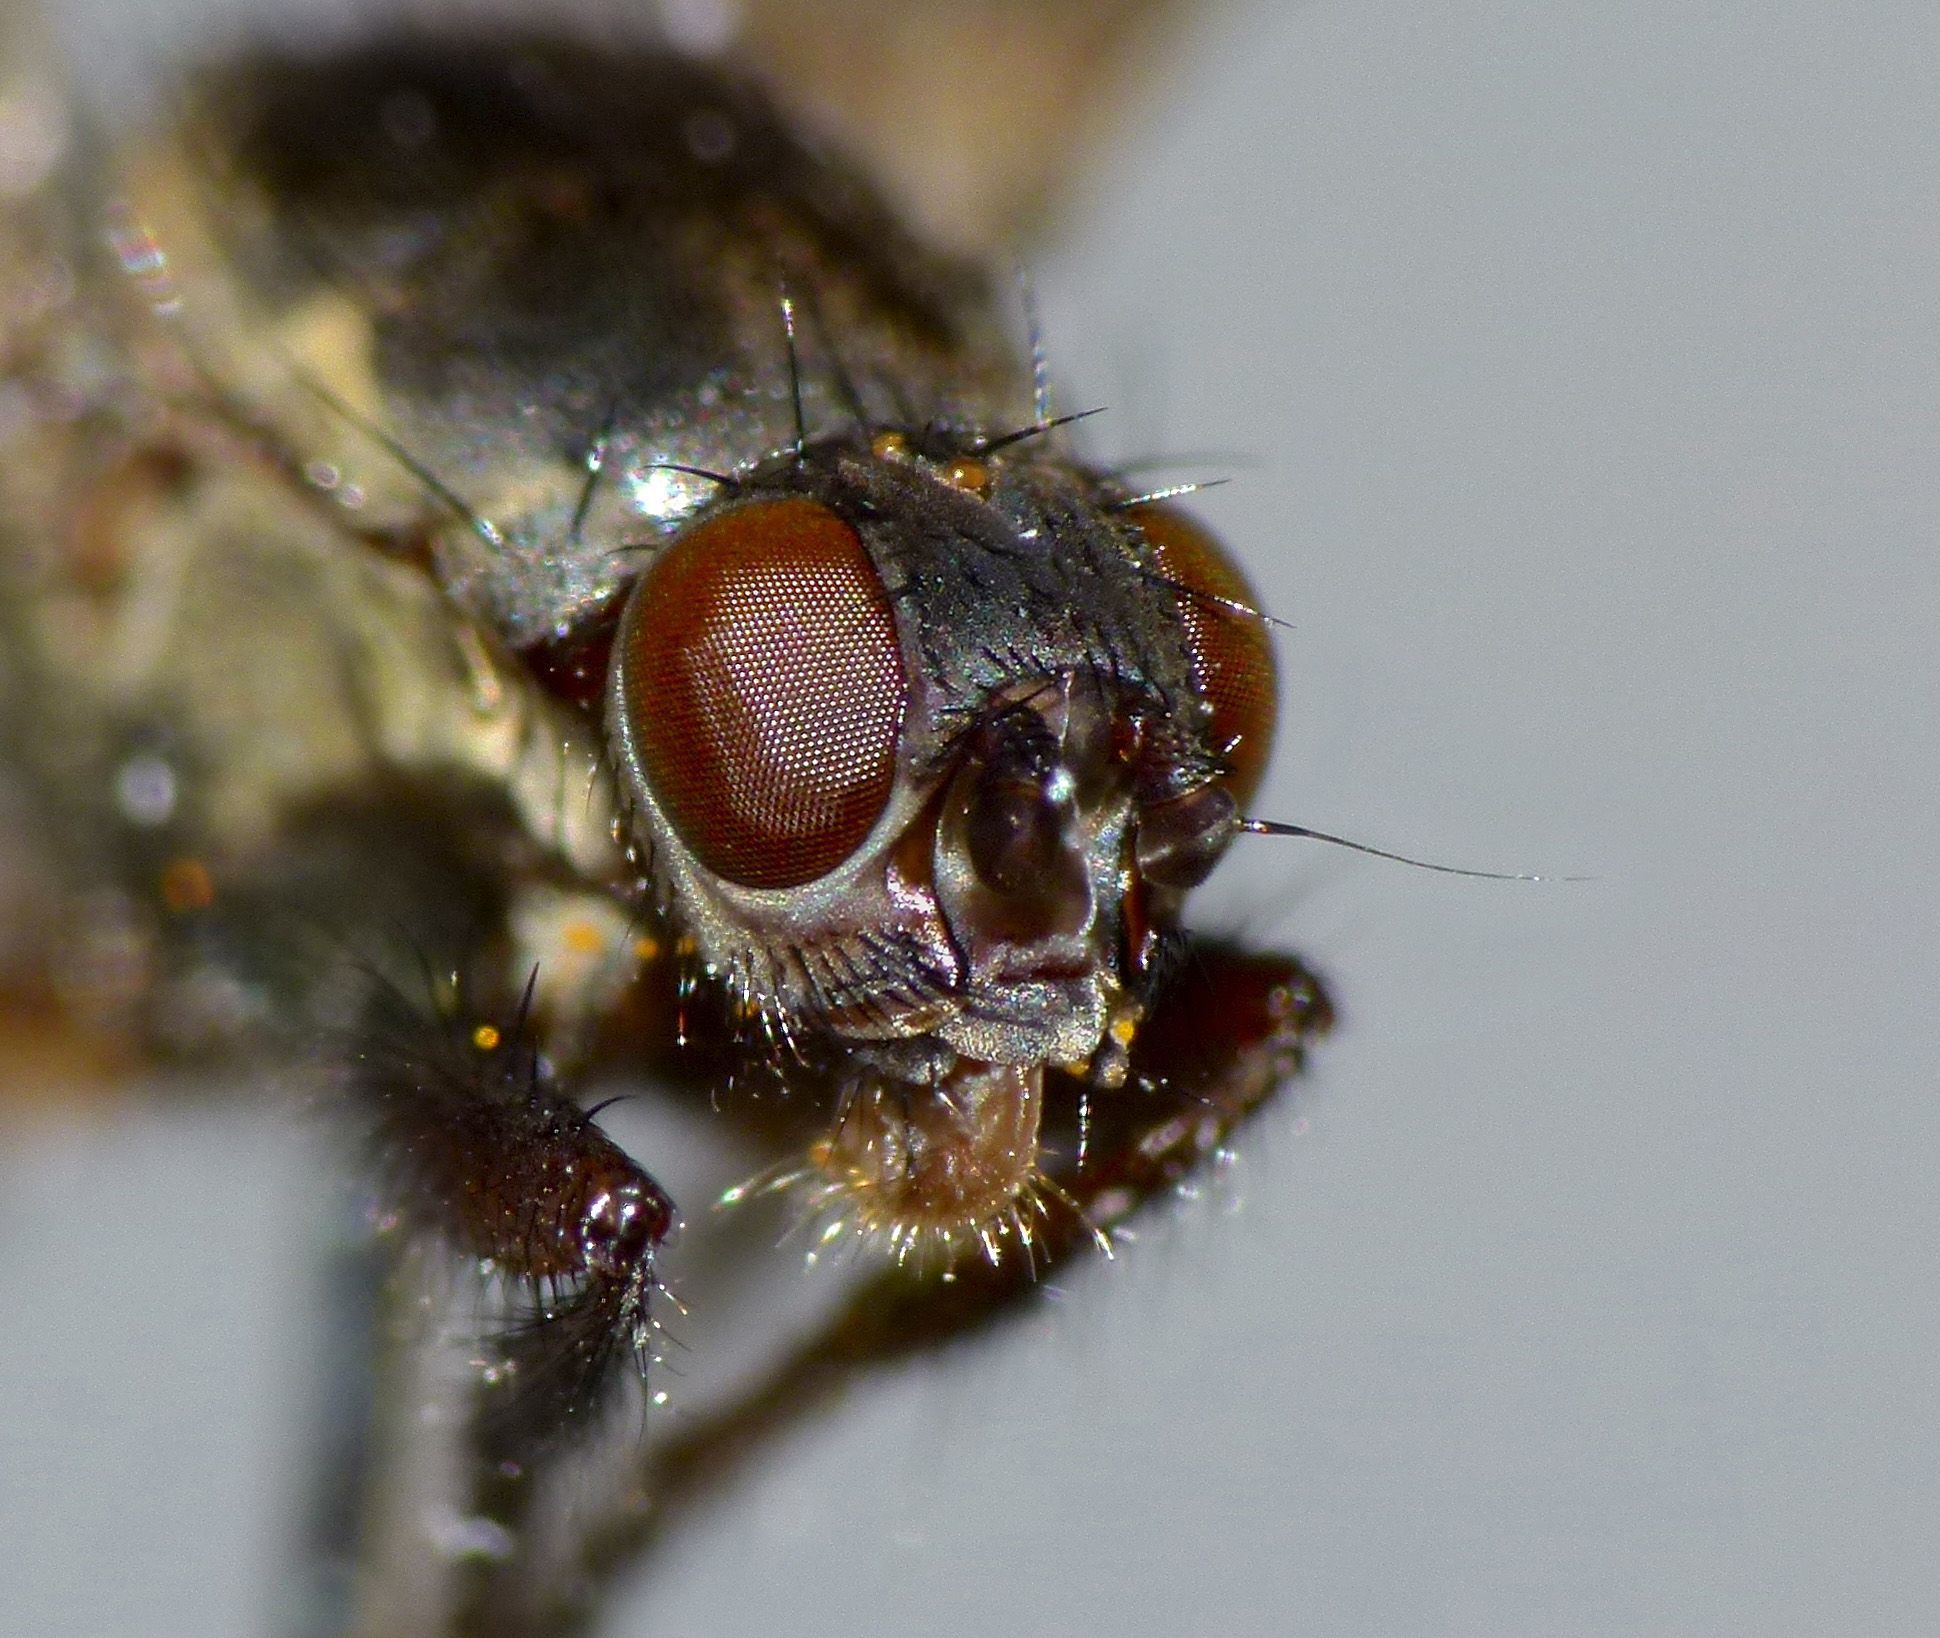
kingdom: Animalia
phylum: Arthropoda
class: Insecta
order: Diptera
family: Coelopidae
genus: Chaetocoelopa
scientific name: Chaetocoelopa littoralis
